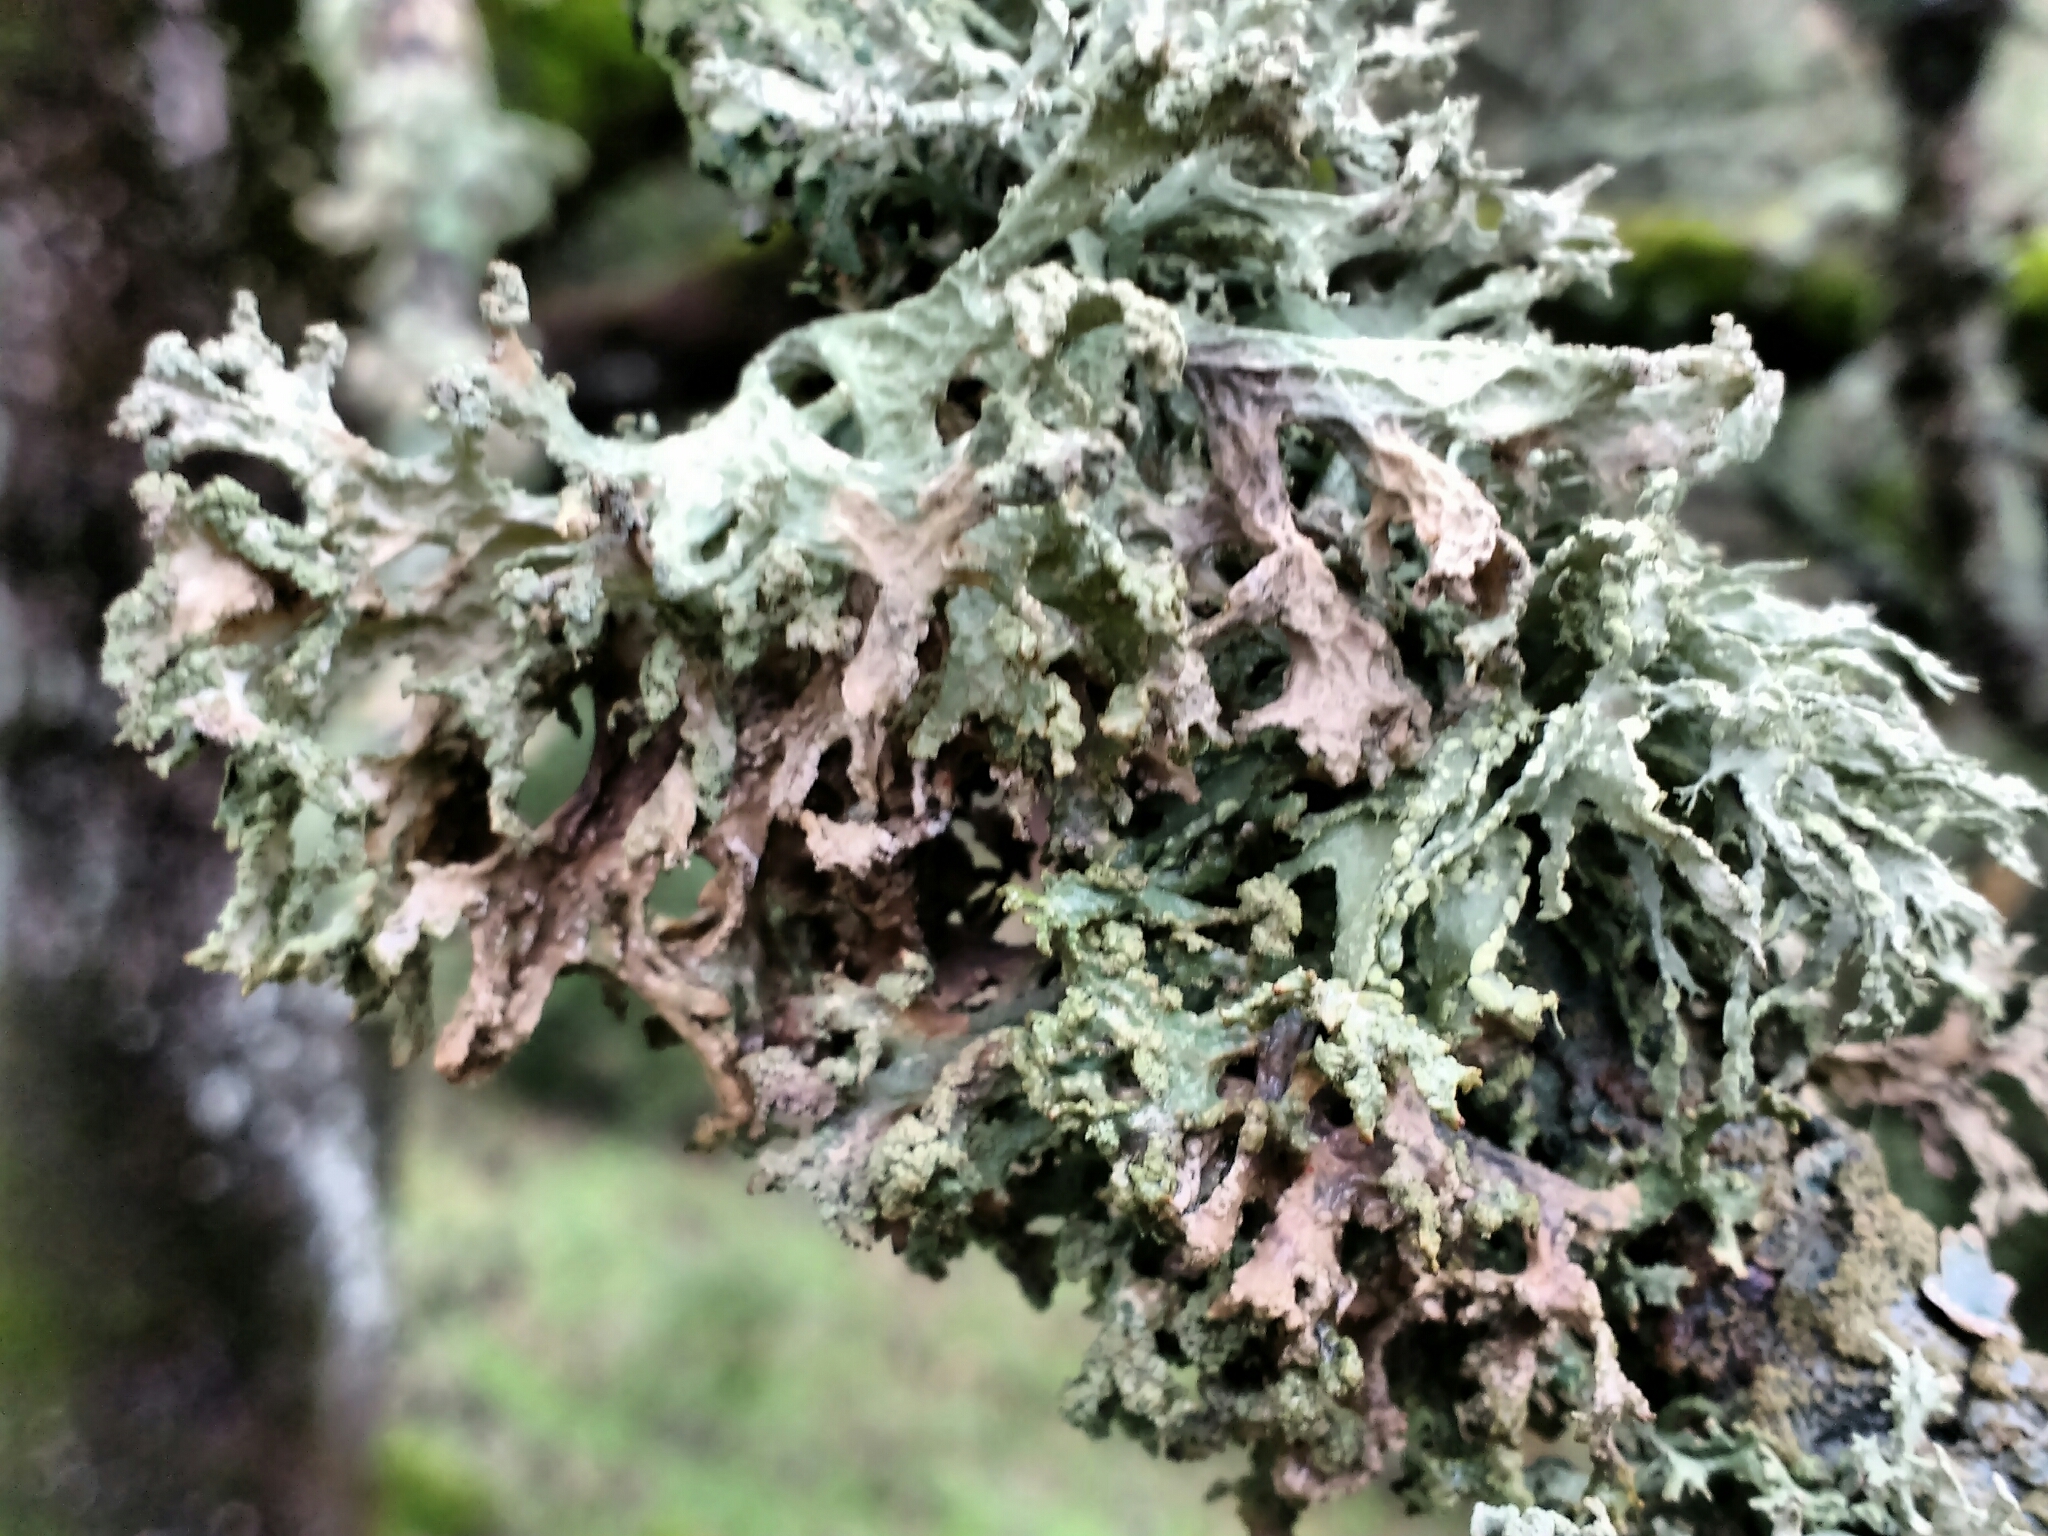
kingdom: Fungi
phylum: Ascomycota
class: Lecanoromycetes
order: Lecanorales
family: Parmeliaceae
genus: Evernia
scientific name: Evernia prunastri
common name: Oak moss
